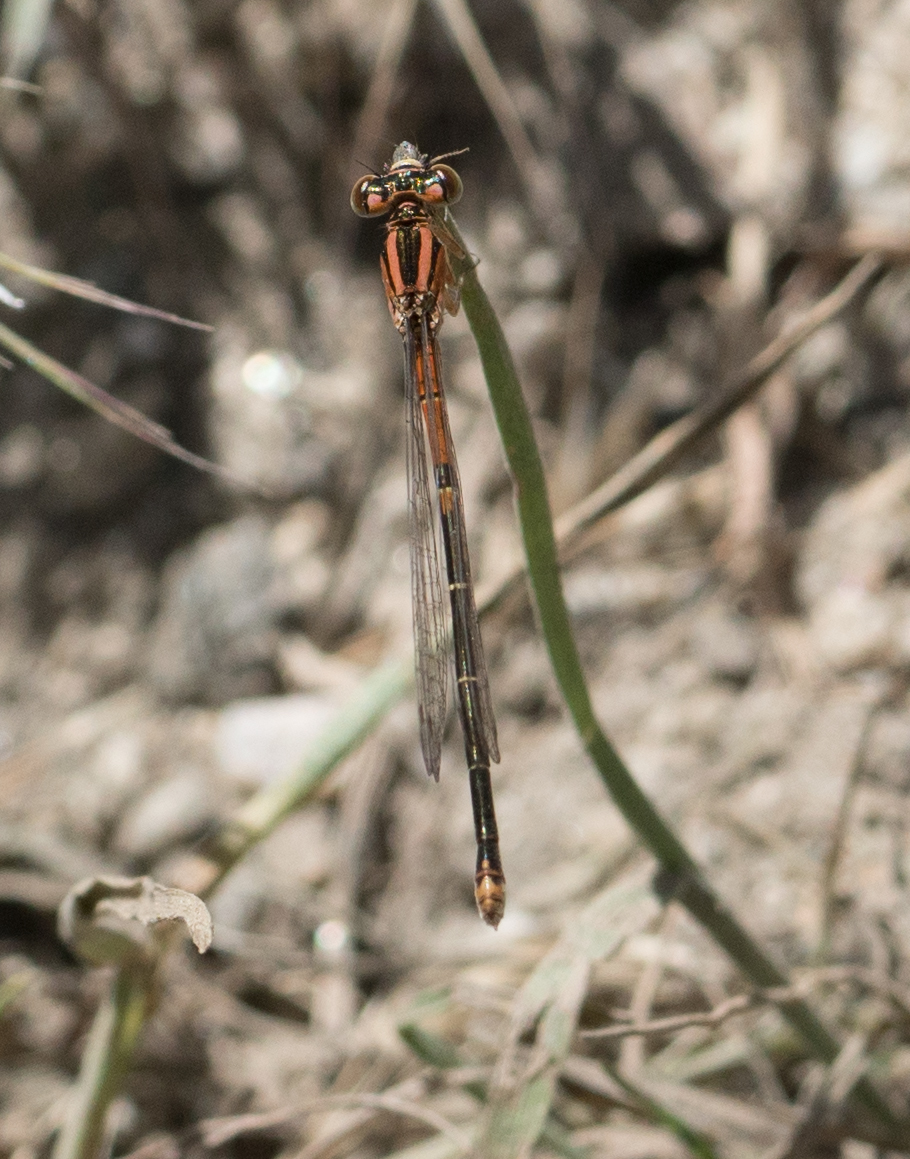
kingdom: Animalia
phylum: Arthropoda
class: Insecta
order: Odonata
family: Coenagrionidae
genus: Ischnura
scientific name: Ischnura perparva
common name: Western forktail
